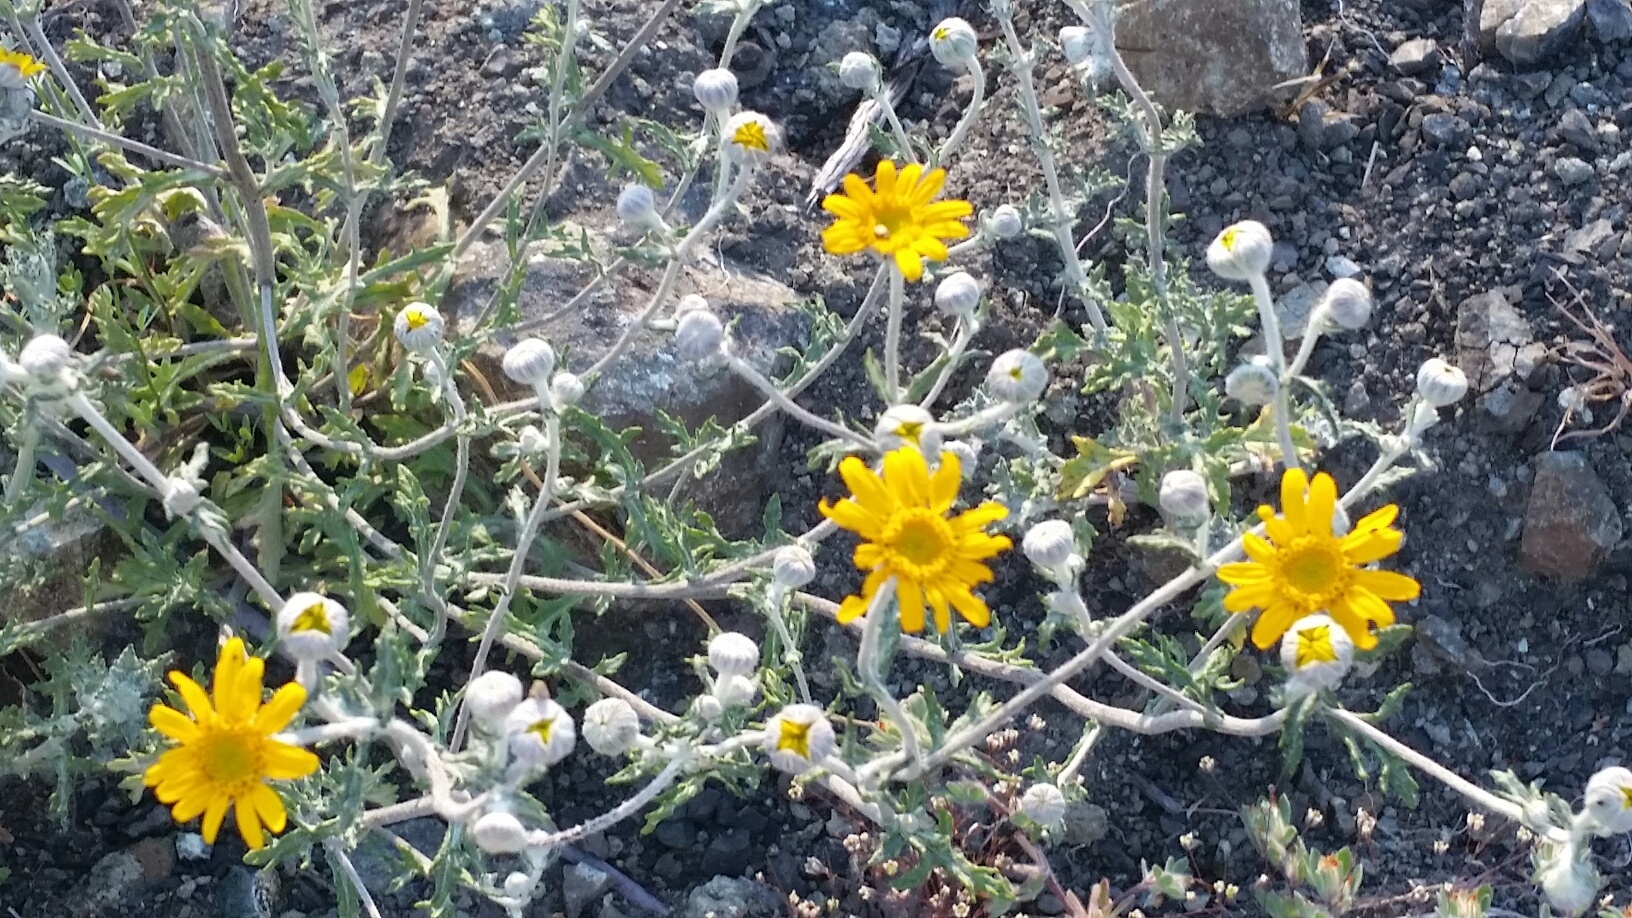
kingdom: Plantae
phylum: Tracheophyta
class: Magnoliopsida
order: Asterales
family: Asteraceae
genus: Eriophyllum
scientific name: Eriophyllum lanatum
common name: Common woolly-sunflower
